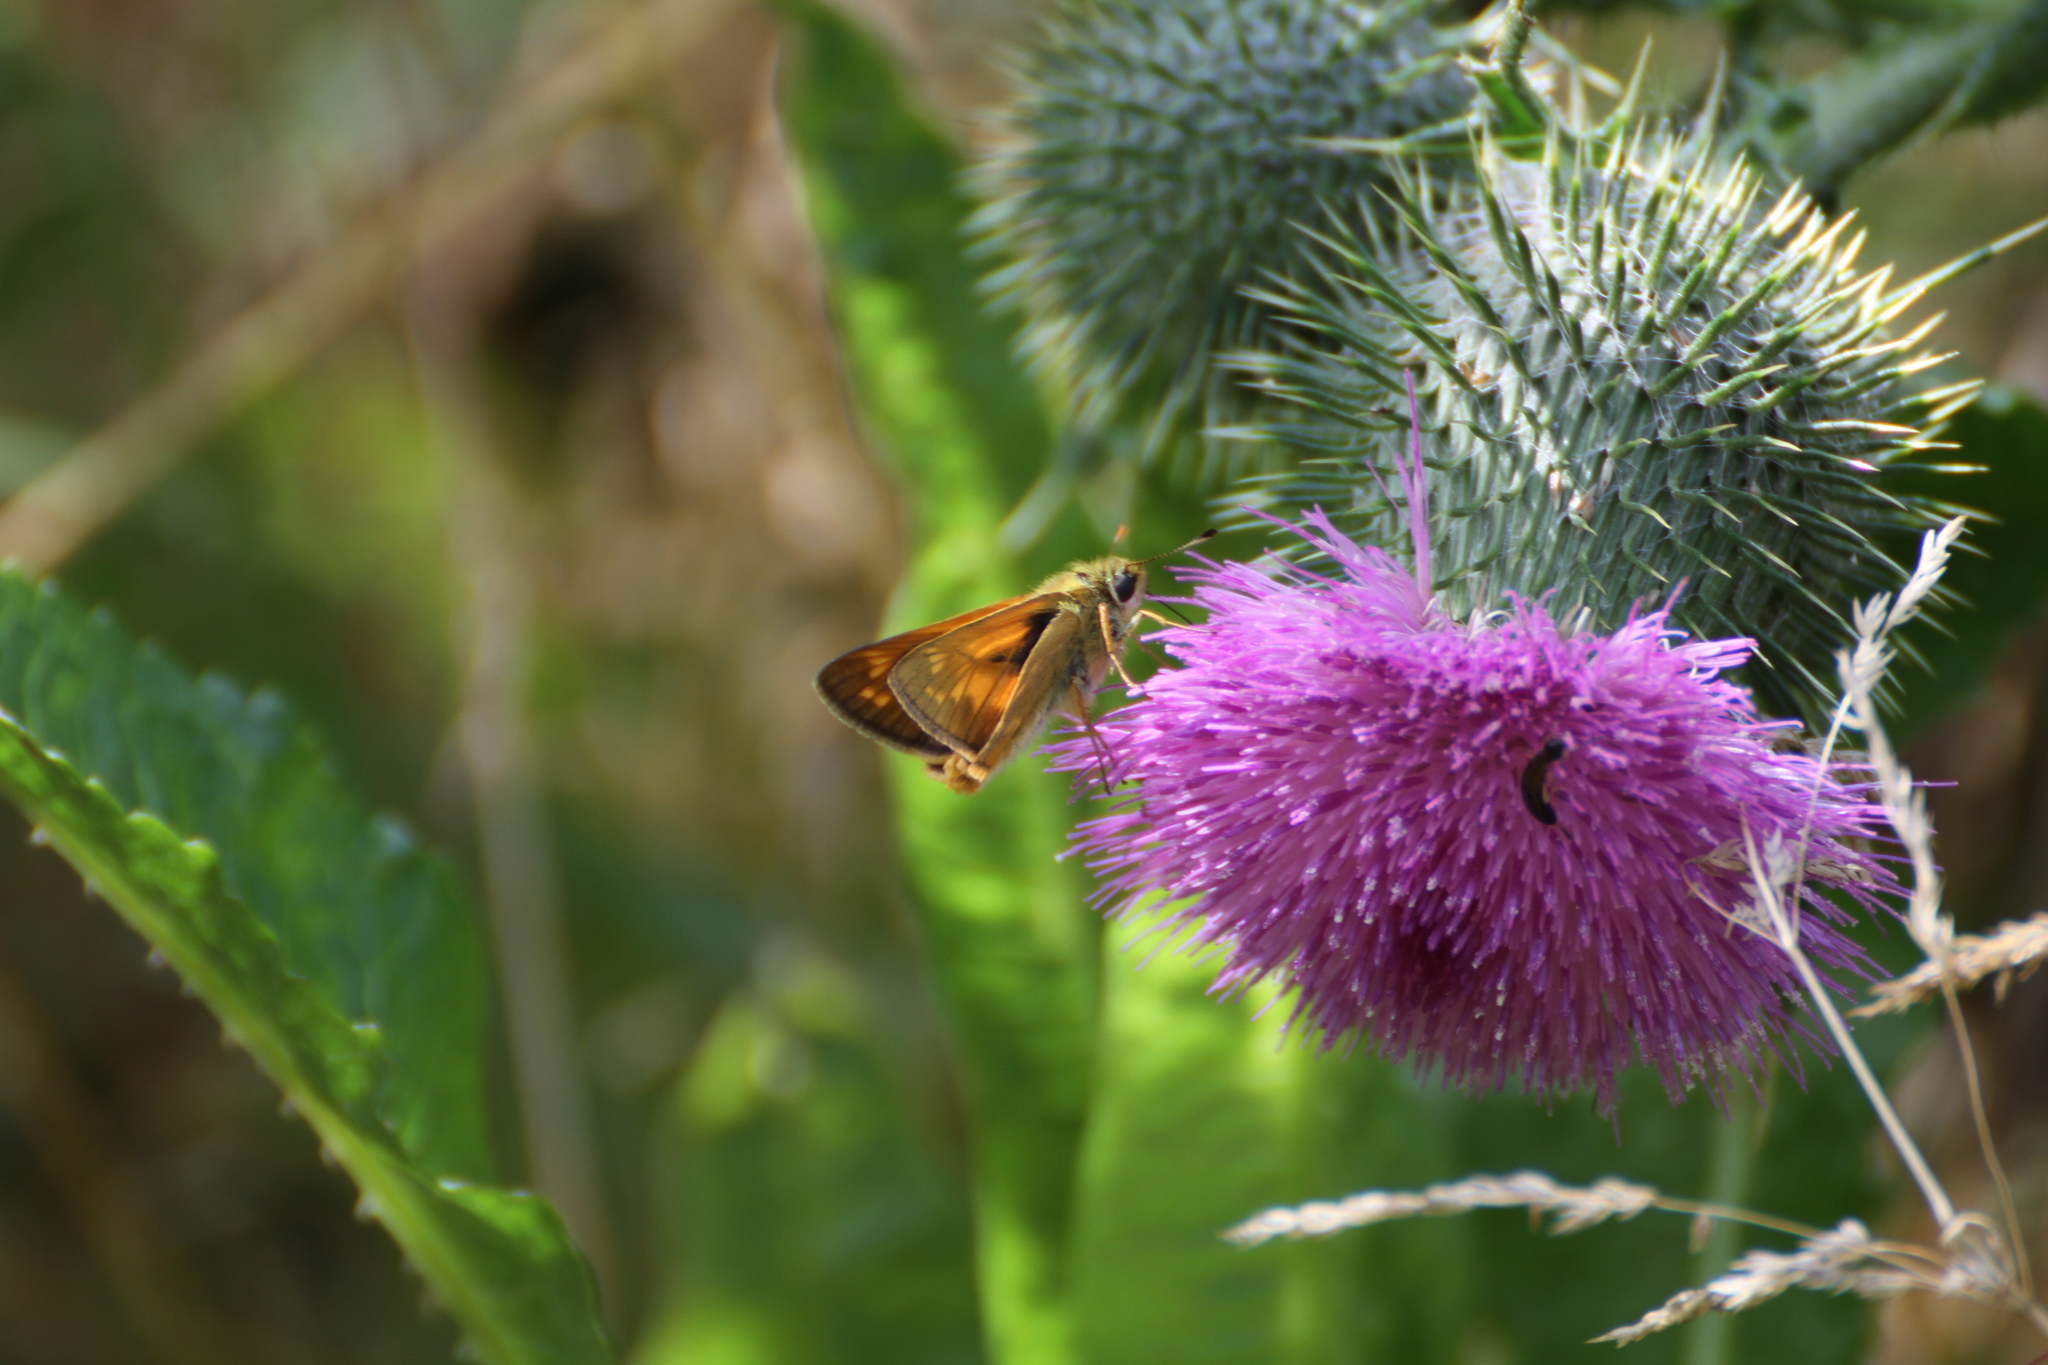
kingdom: Animalia
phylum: Arthropoda
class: Insecta
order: Lepidoptera
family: Hesperiidae
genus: Ochlodes
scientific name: Ochlodes venata
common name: Large skipper
